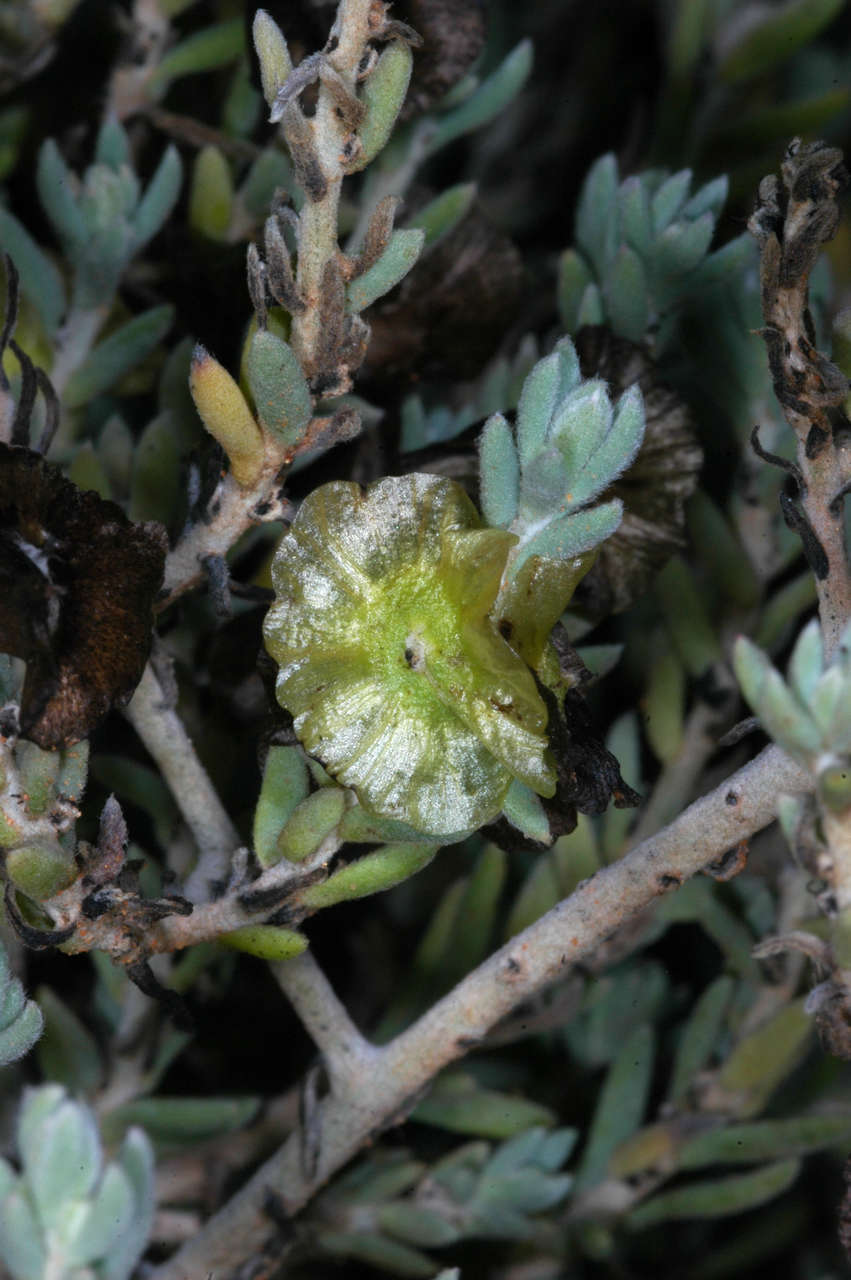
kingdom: Plantae
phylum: Tracheophyta
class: Magnoliopsida
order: Caryophyllales
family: Amaranthaceae
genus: Maireana
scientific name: Maireana appressa
